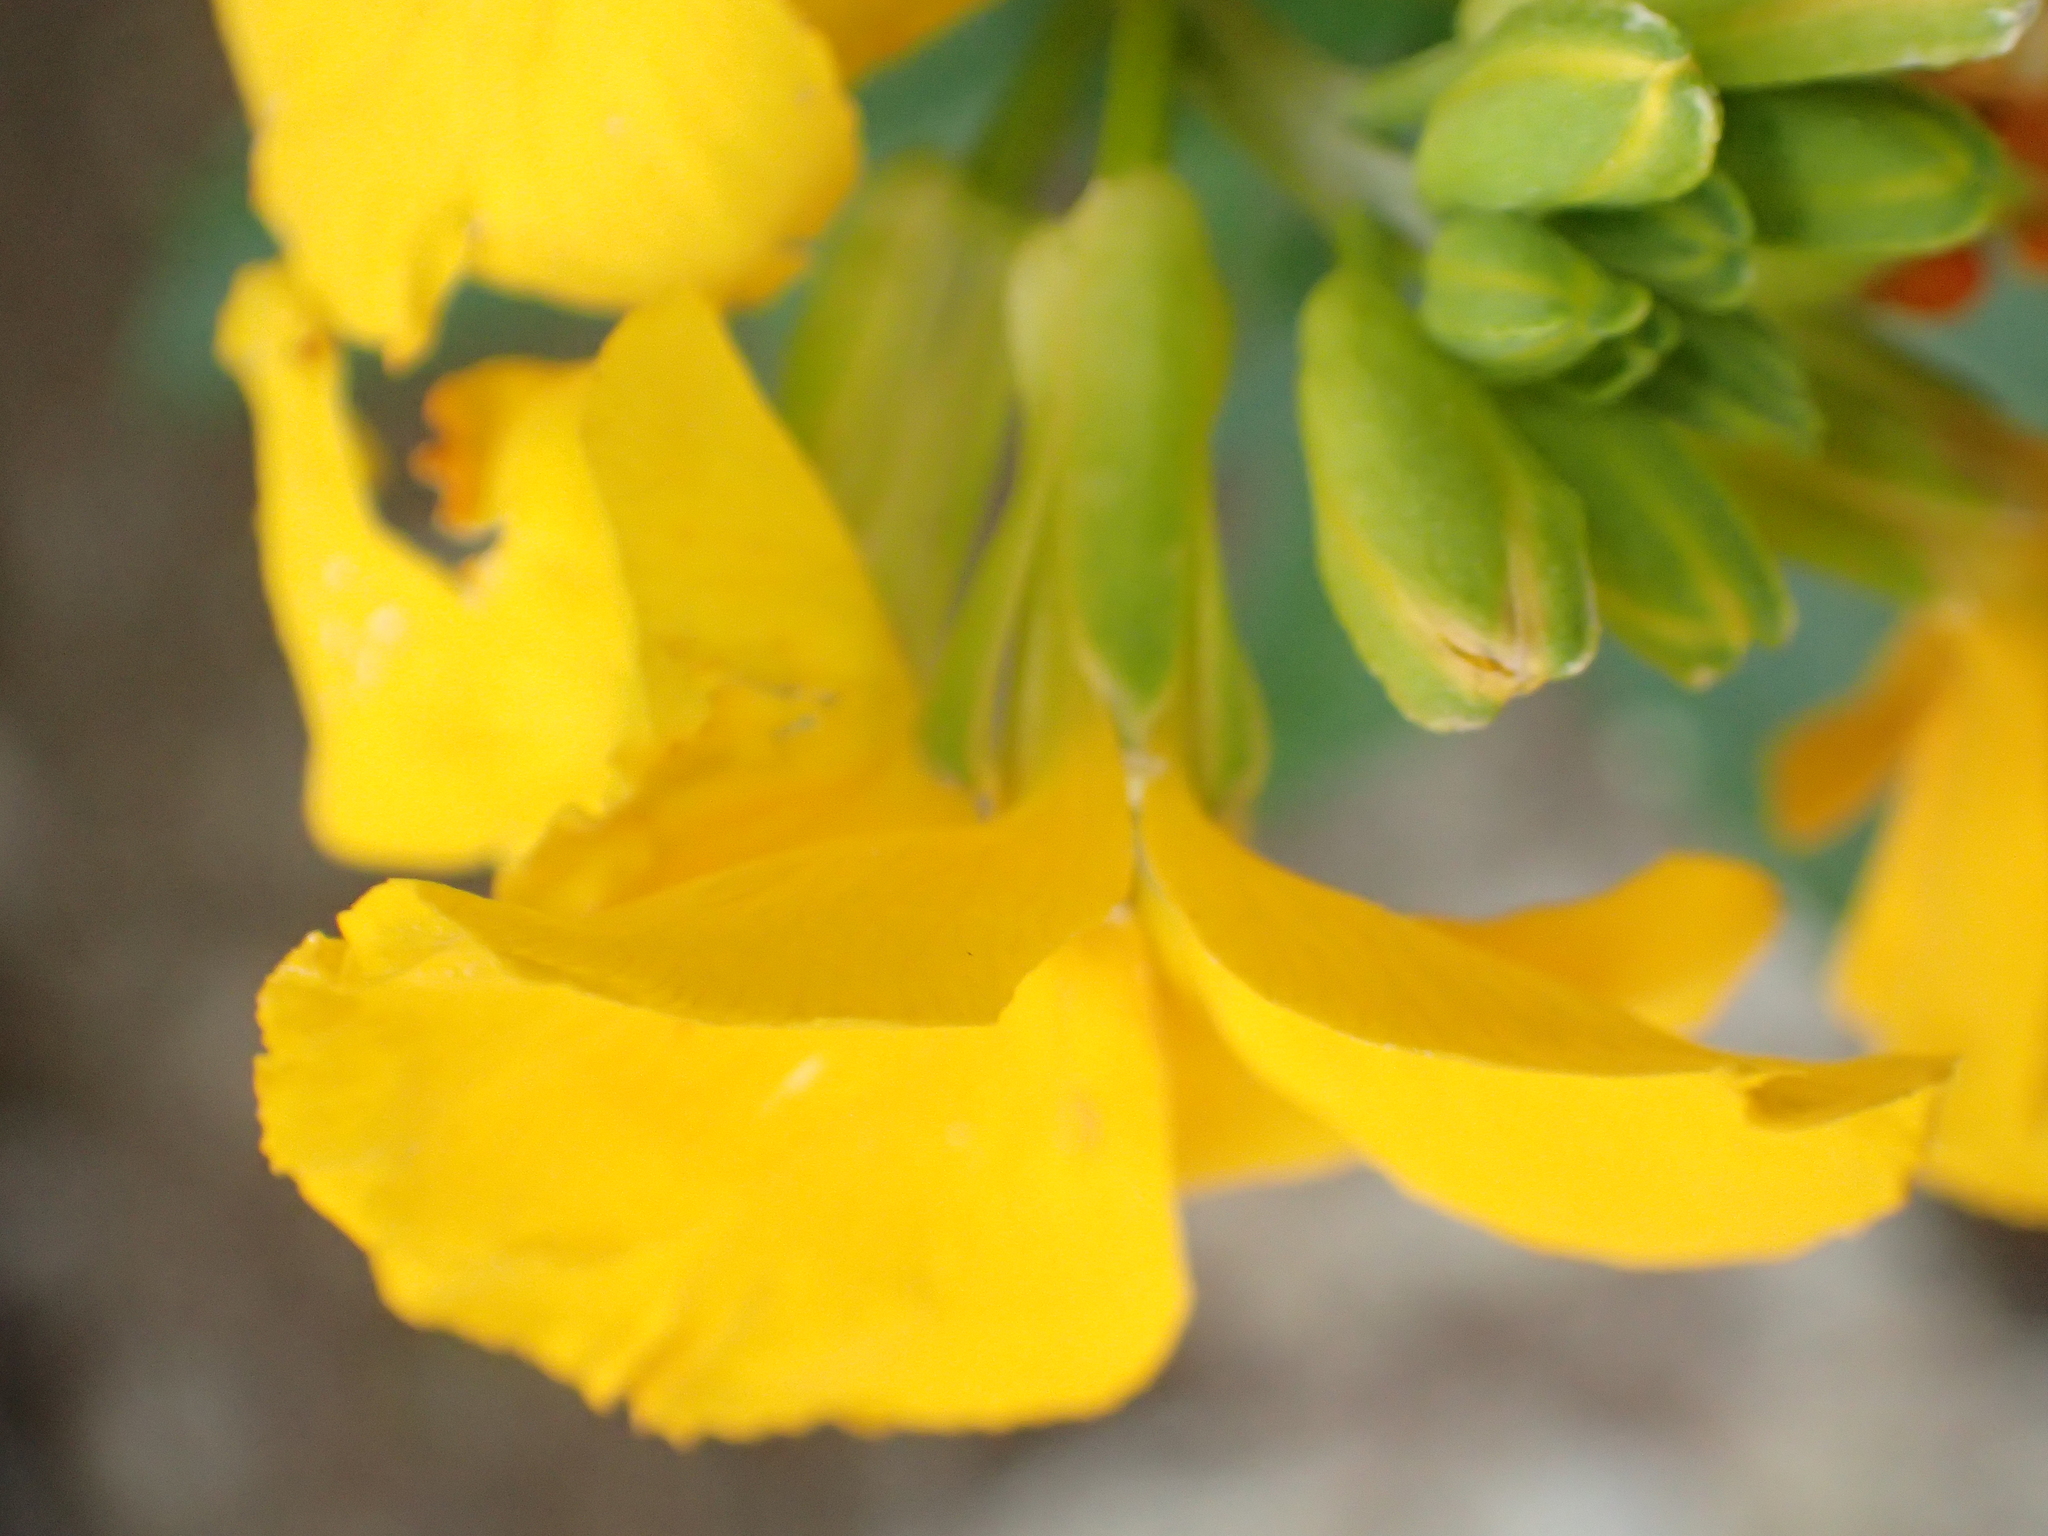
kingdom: Plantae
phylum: Tracheophyta
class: Magnoliopsida
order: Brassicales
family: Brassicaceae
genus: Erysimum
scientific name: Erysimum cheiri
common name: Wallflower
